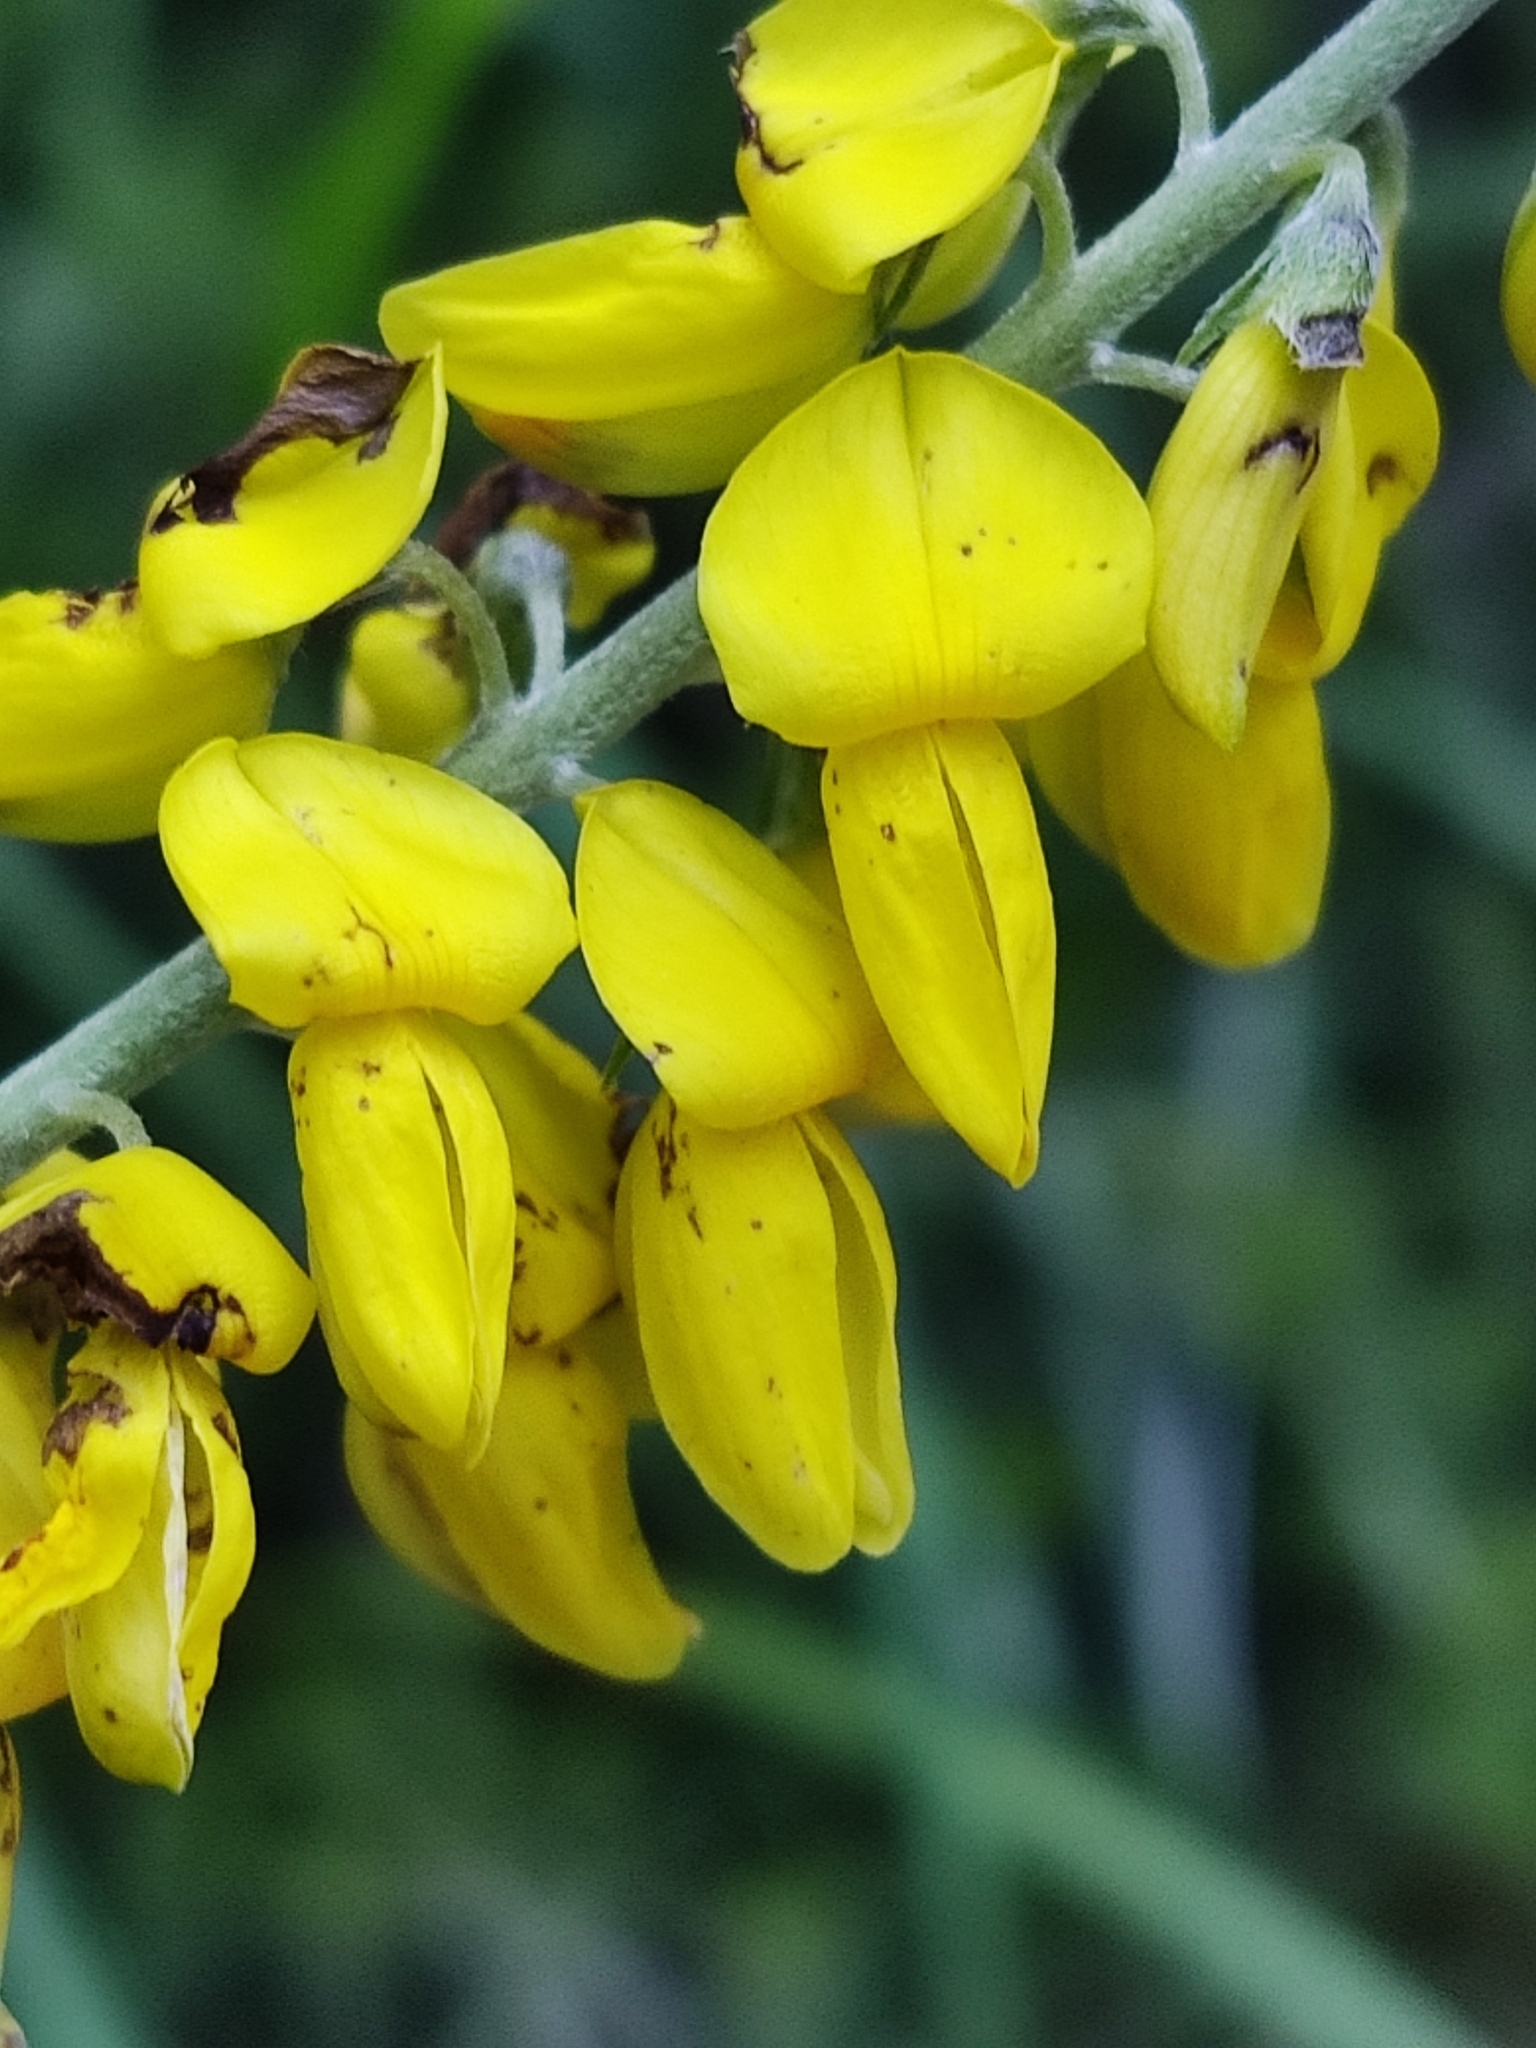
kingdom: Plantae
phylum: Tracheophyta
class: Magnoliopsida
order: Fabales
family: Fabaceae
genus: Cytisus
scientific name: Cytisus nigricans
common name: Black broom
